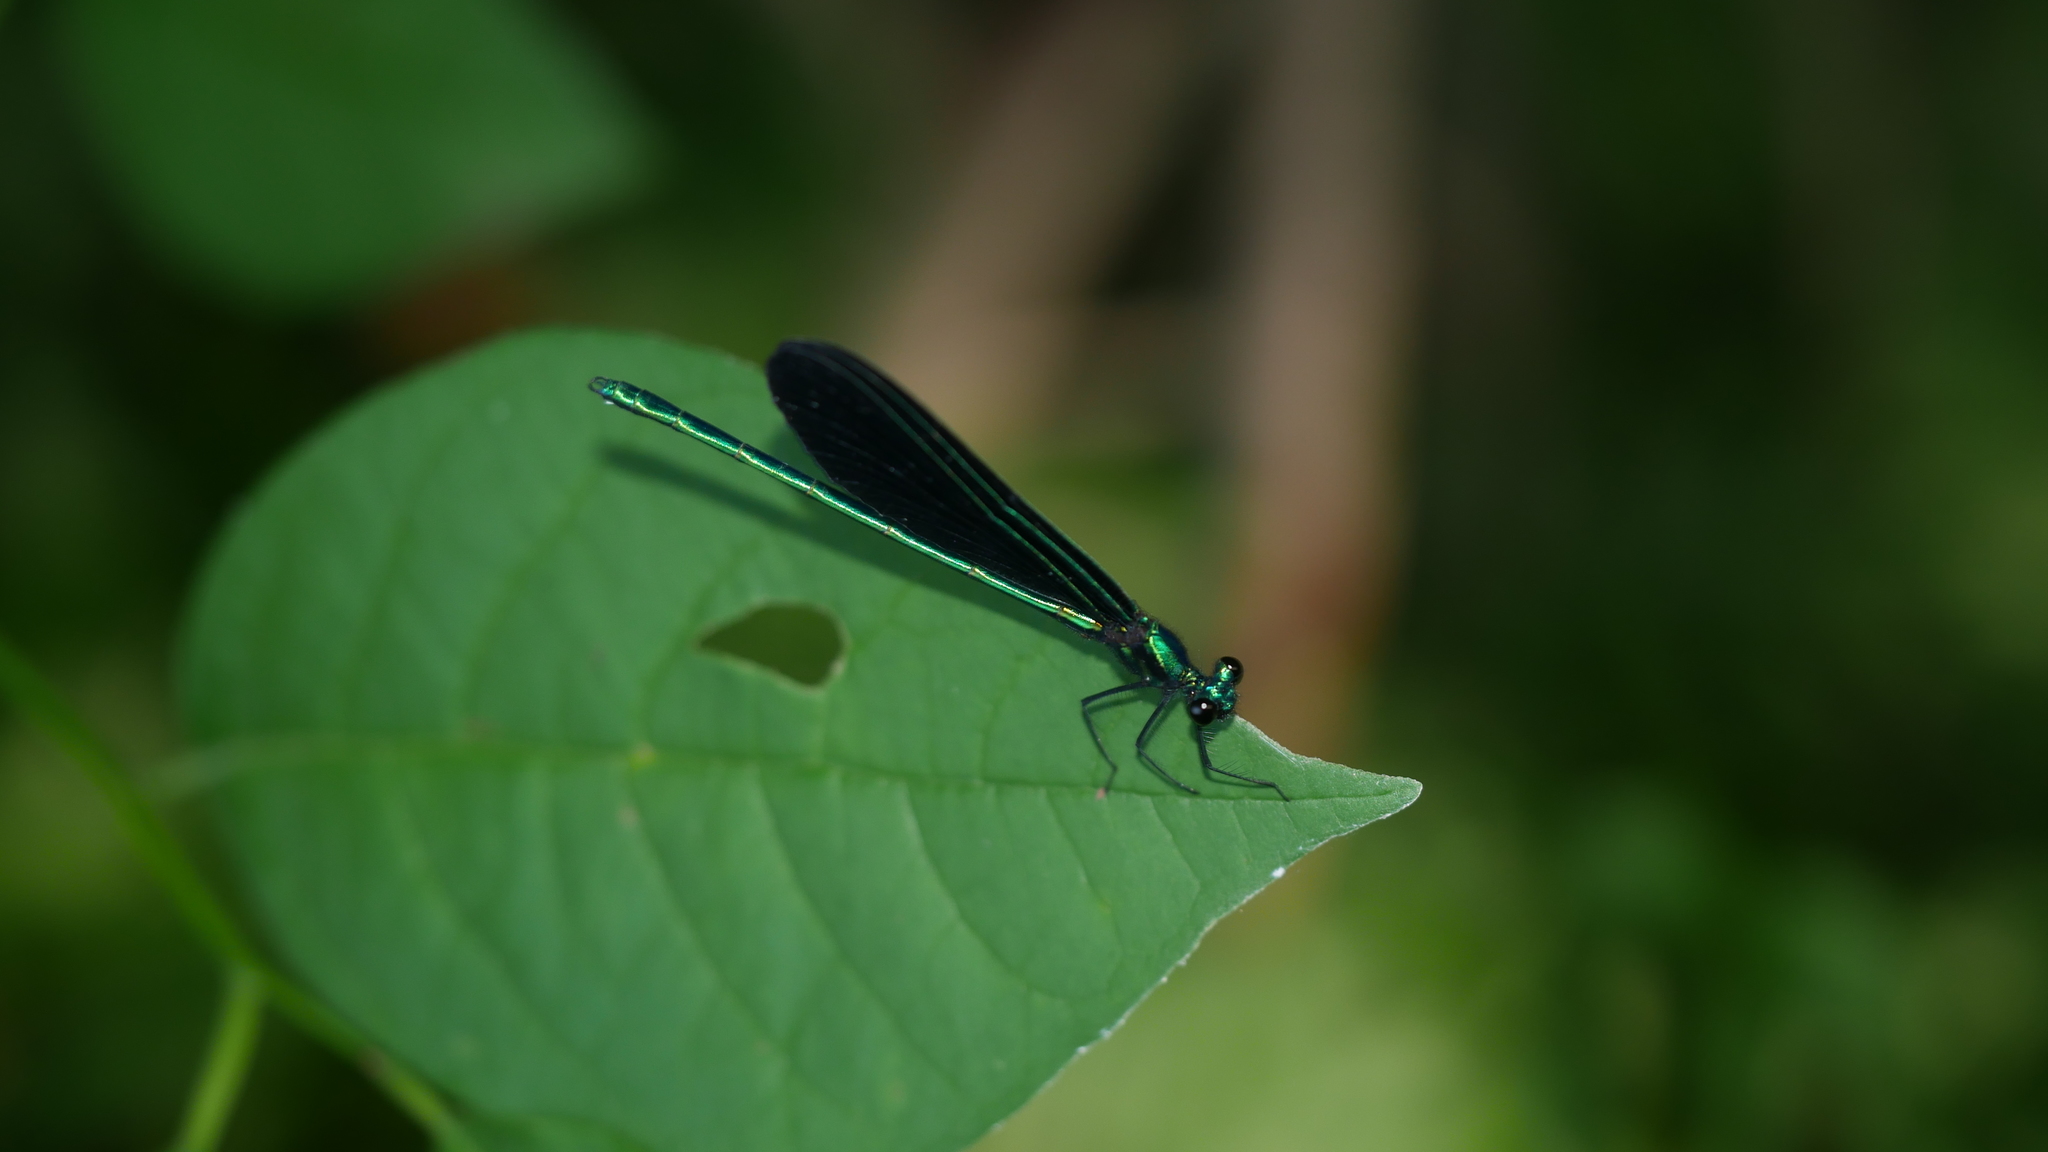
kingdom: Animalia
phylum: Arthropoda
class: Insecta
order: Odonata
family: Calopterygidae
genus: Calopteryx
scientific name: Calopteryx maculata
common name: Ebony jewelwing
